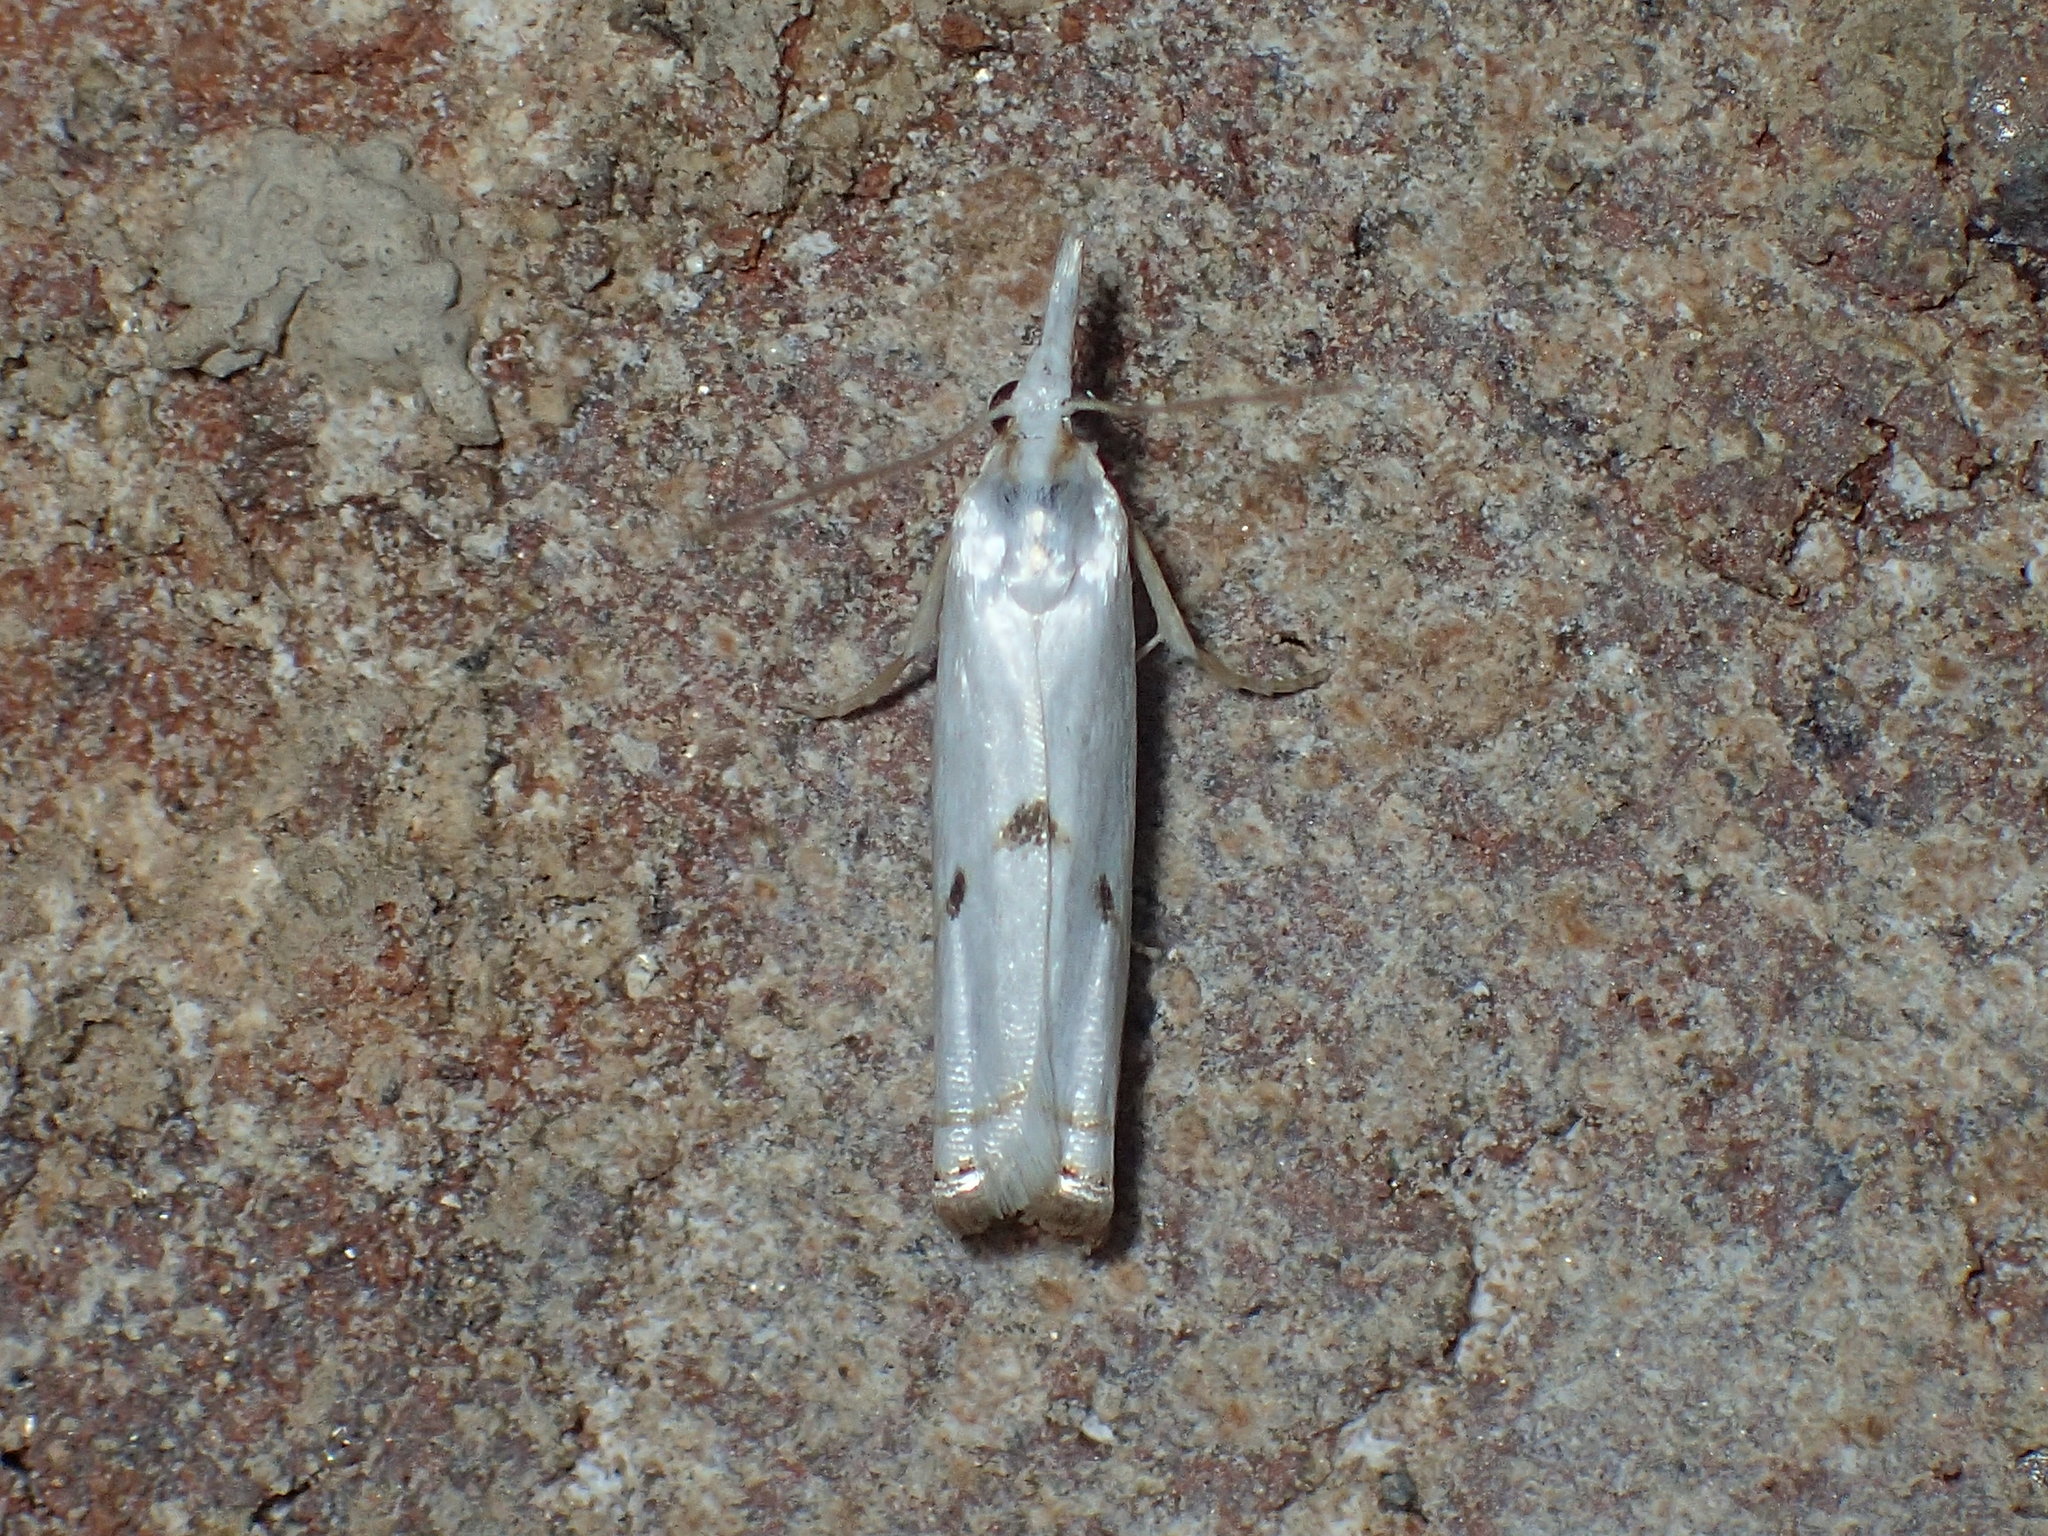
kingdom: Animalia
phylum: Arthropoda
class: Insecta
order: Lepidoptera
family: Crambidae
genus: Microcrambus
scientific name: Microcrambus biguttellus
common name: Gold-stripe grass-veneer moth
